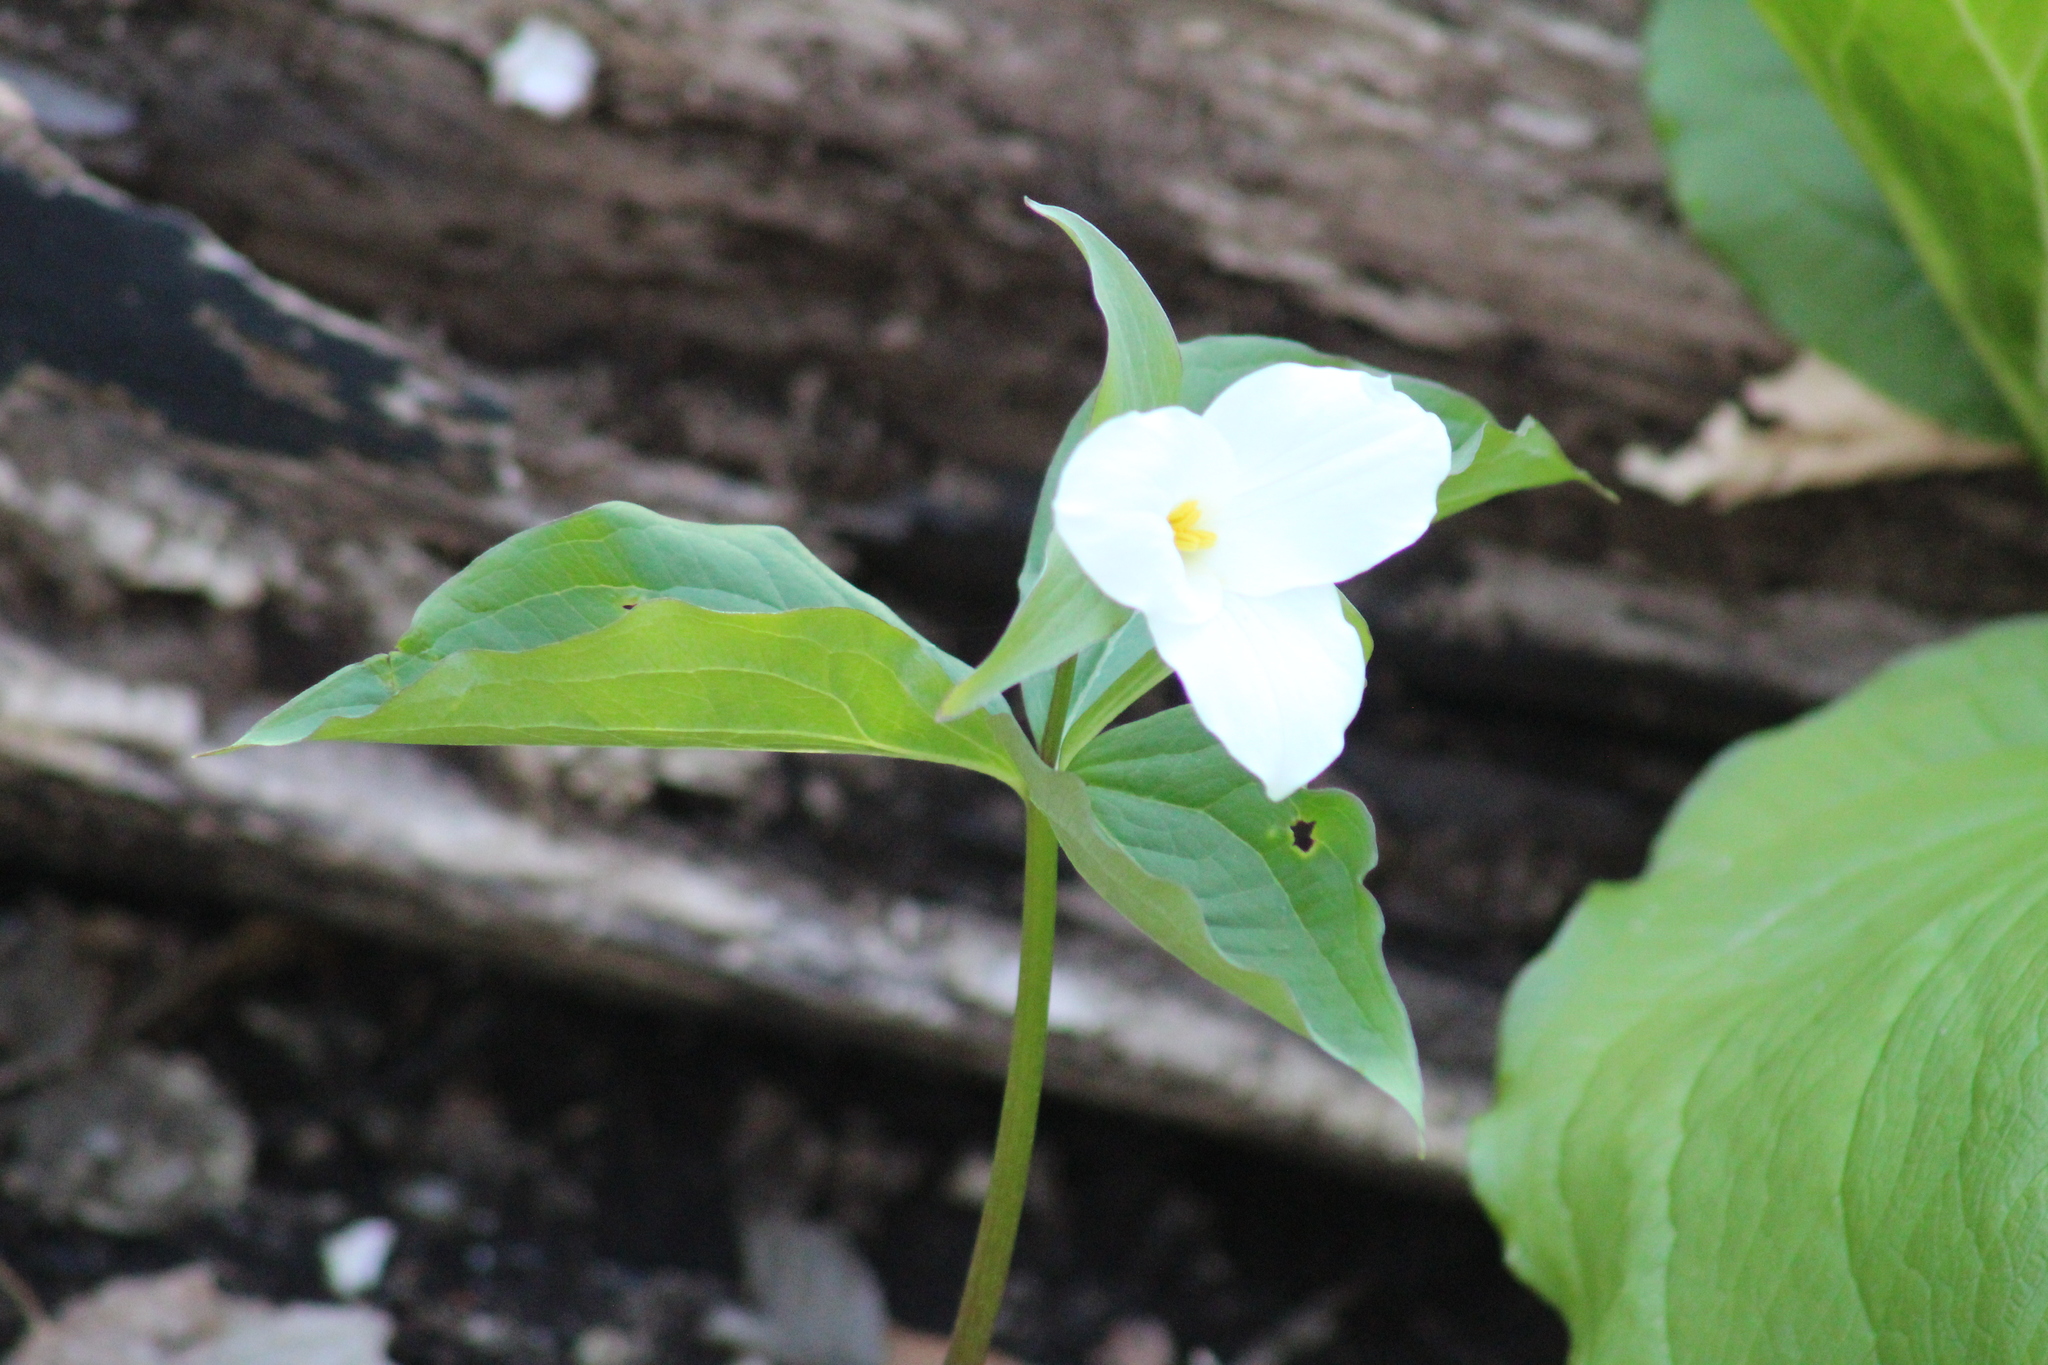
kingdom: Plantae
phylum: Tracheophyta
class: Liliopsida
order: Liliales
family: Melanthiaceae
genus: Trillium
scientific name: Trillium grandiflorum
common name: Great white trillium
